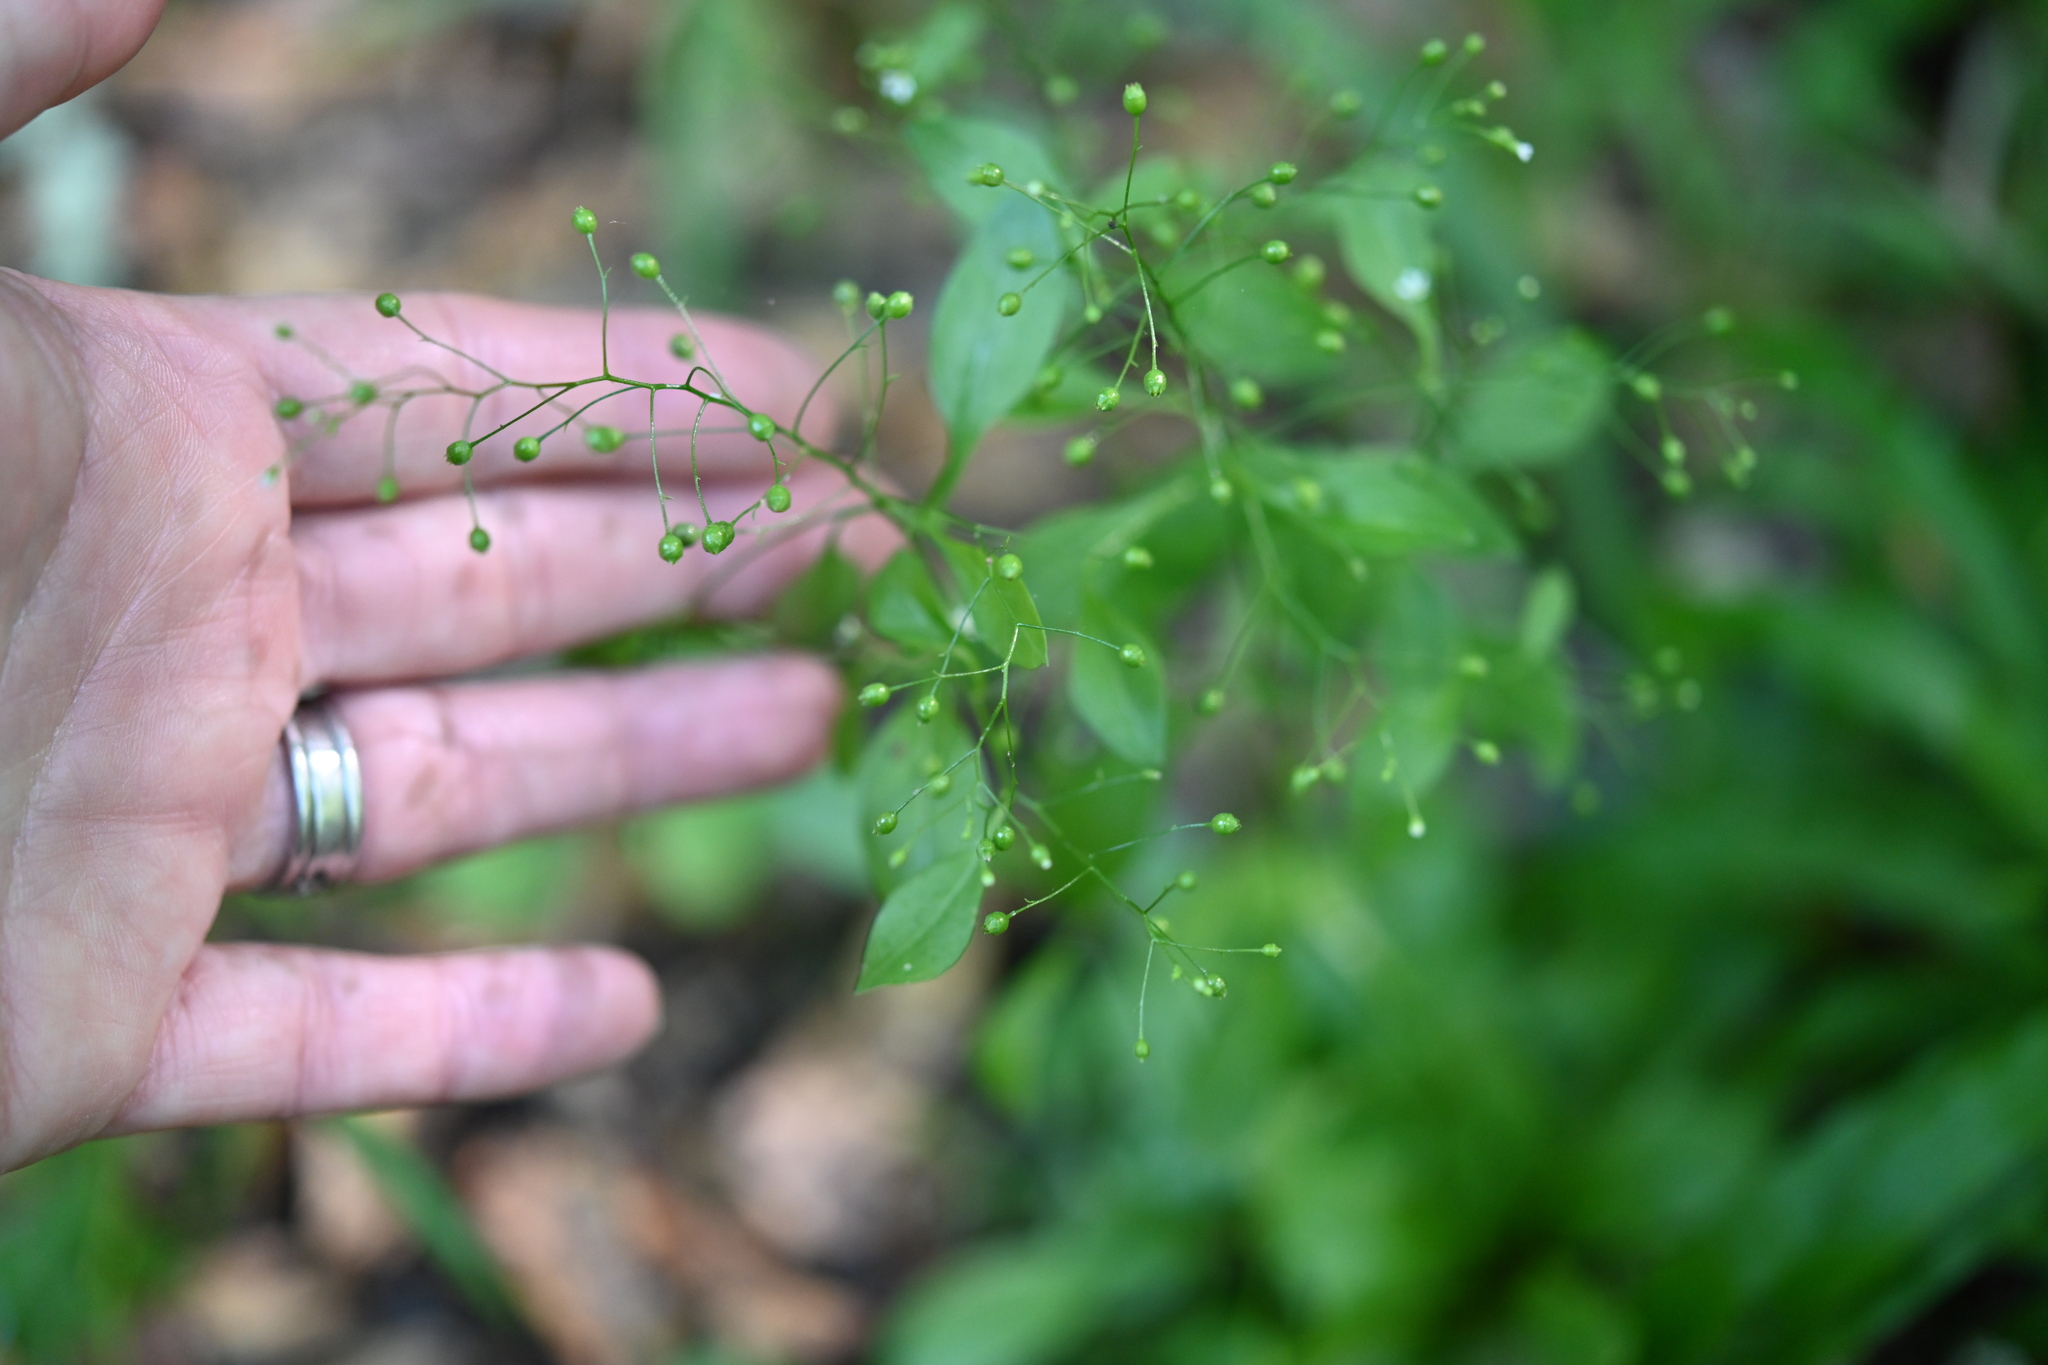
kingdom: Plantae
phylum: Tracheophyta
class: Magnoliopsida
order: Ericales
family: Primulaceae
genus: Samolus
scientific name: Samolus parviflorus
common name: False water pimpernel
